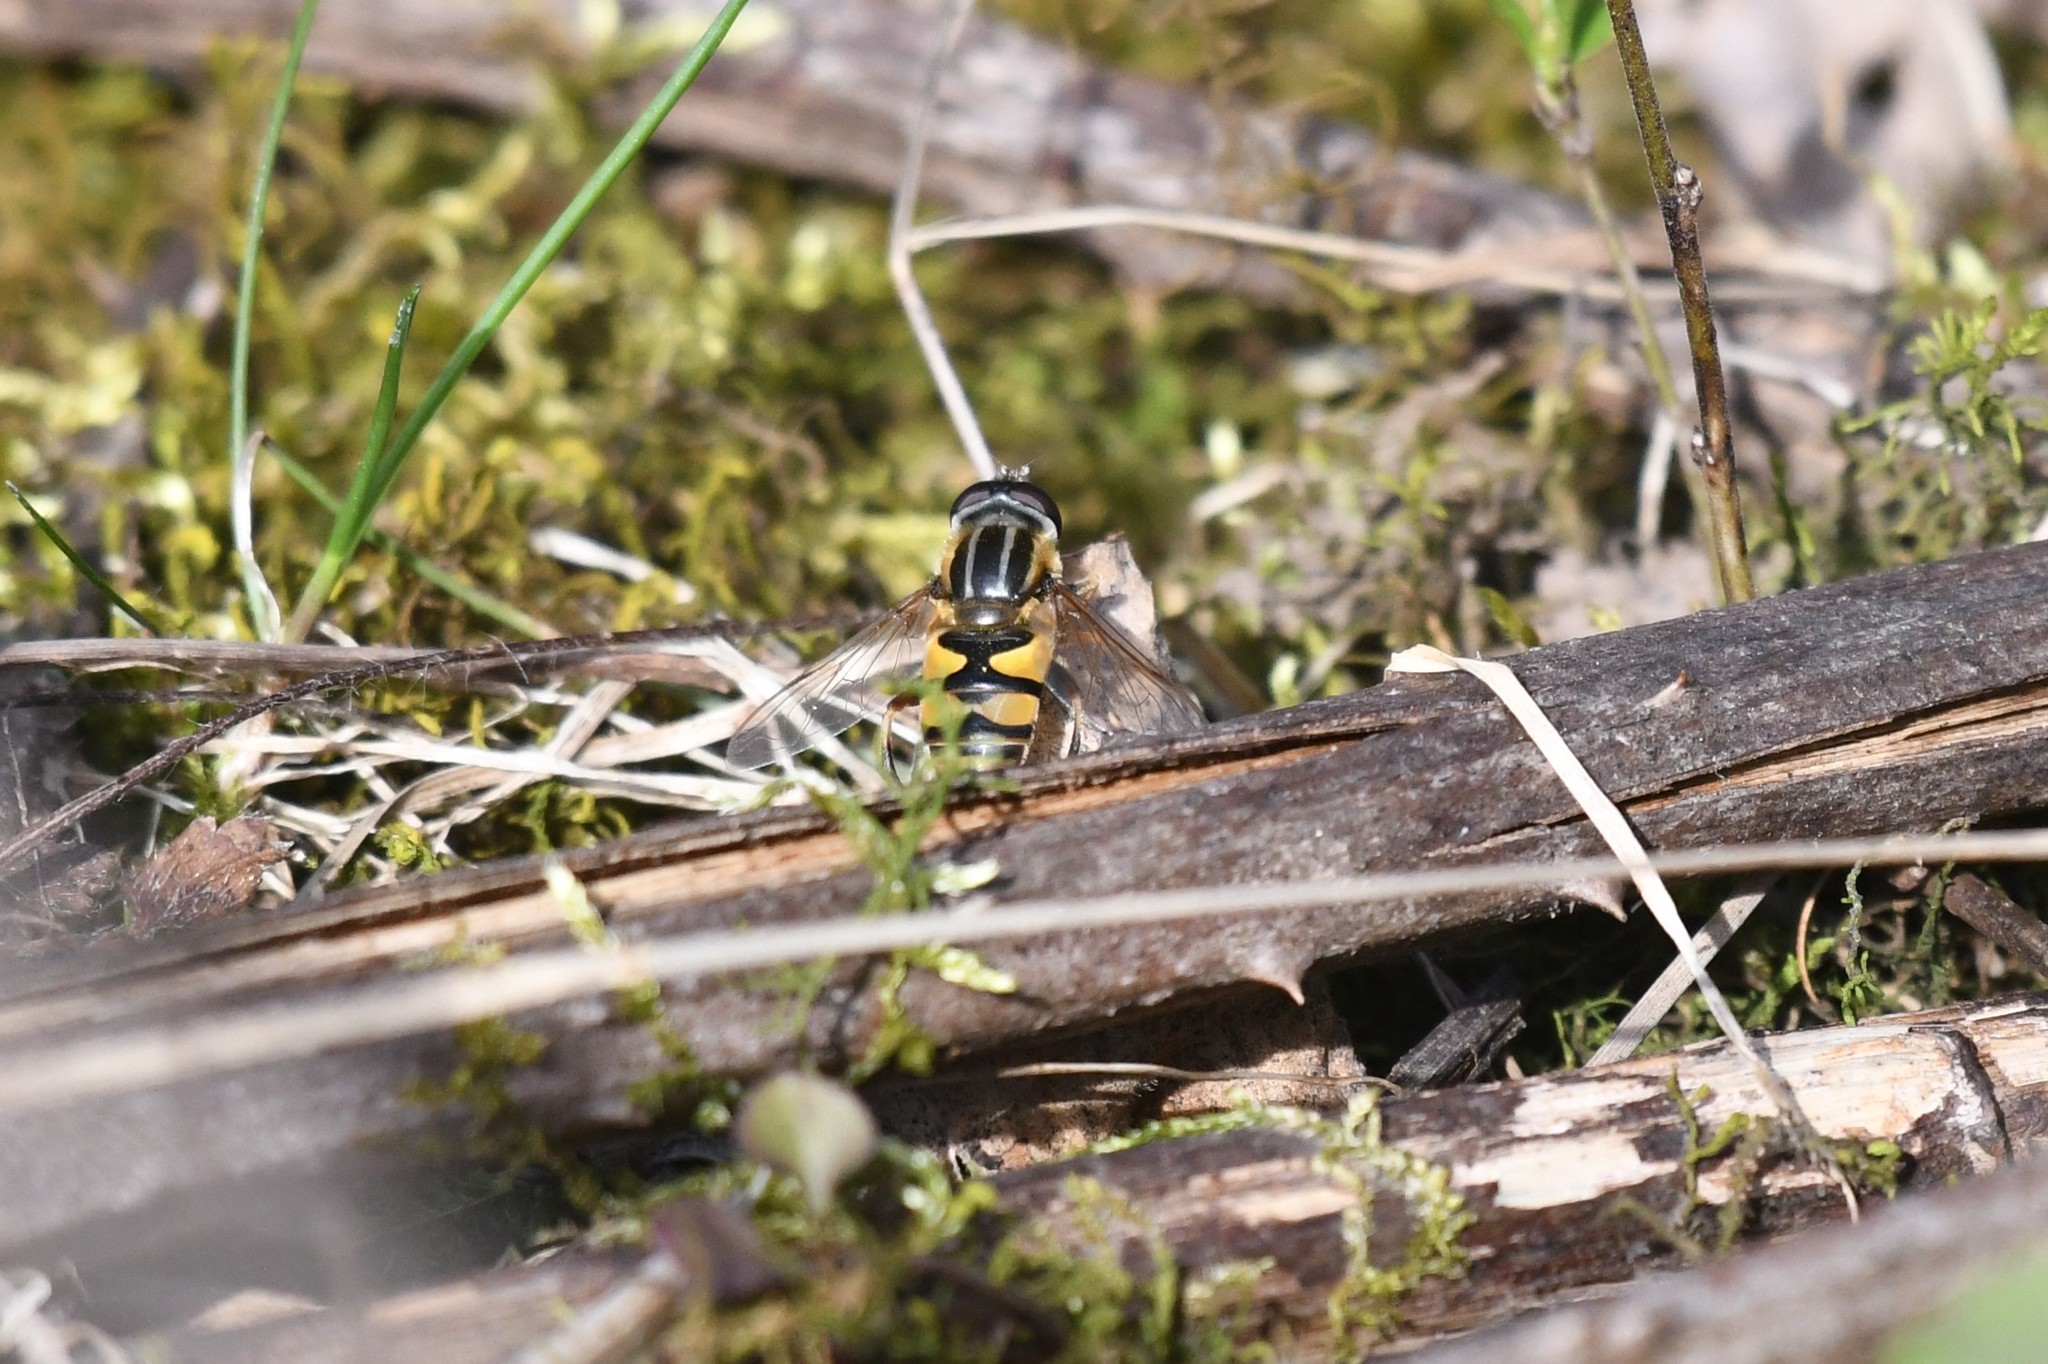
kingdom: Animalia
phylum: Arthropoda
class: Insecta
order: Diptera
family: Syrphidae
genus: Helophilus
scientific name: Helophilus fasciatus
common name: Narrow-headed marsh fly
